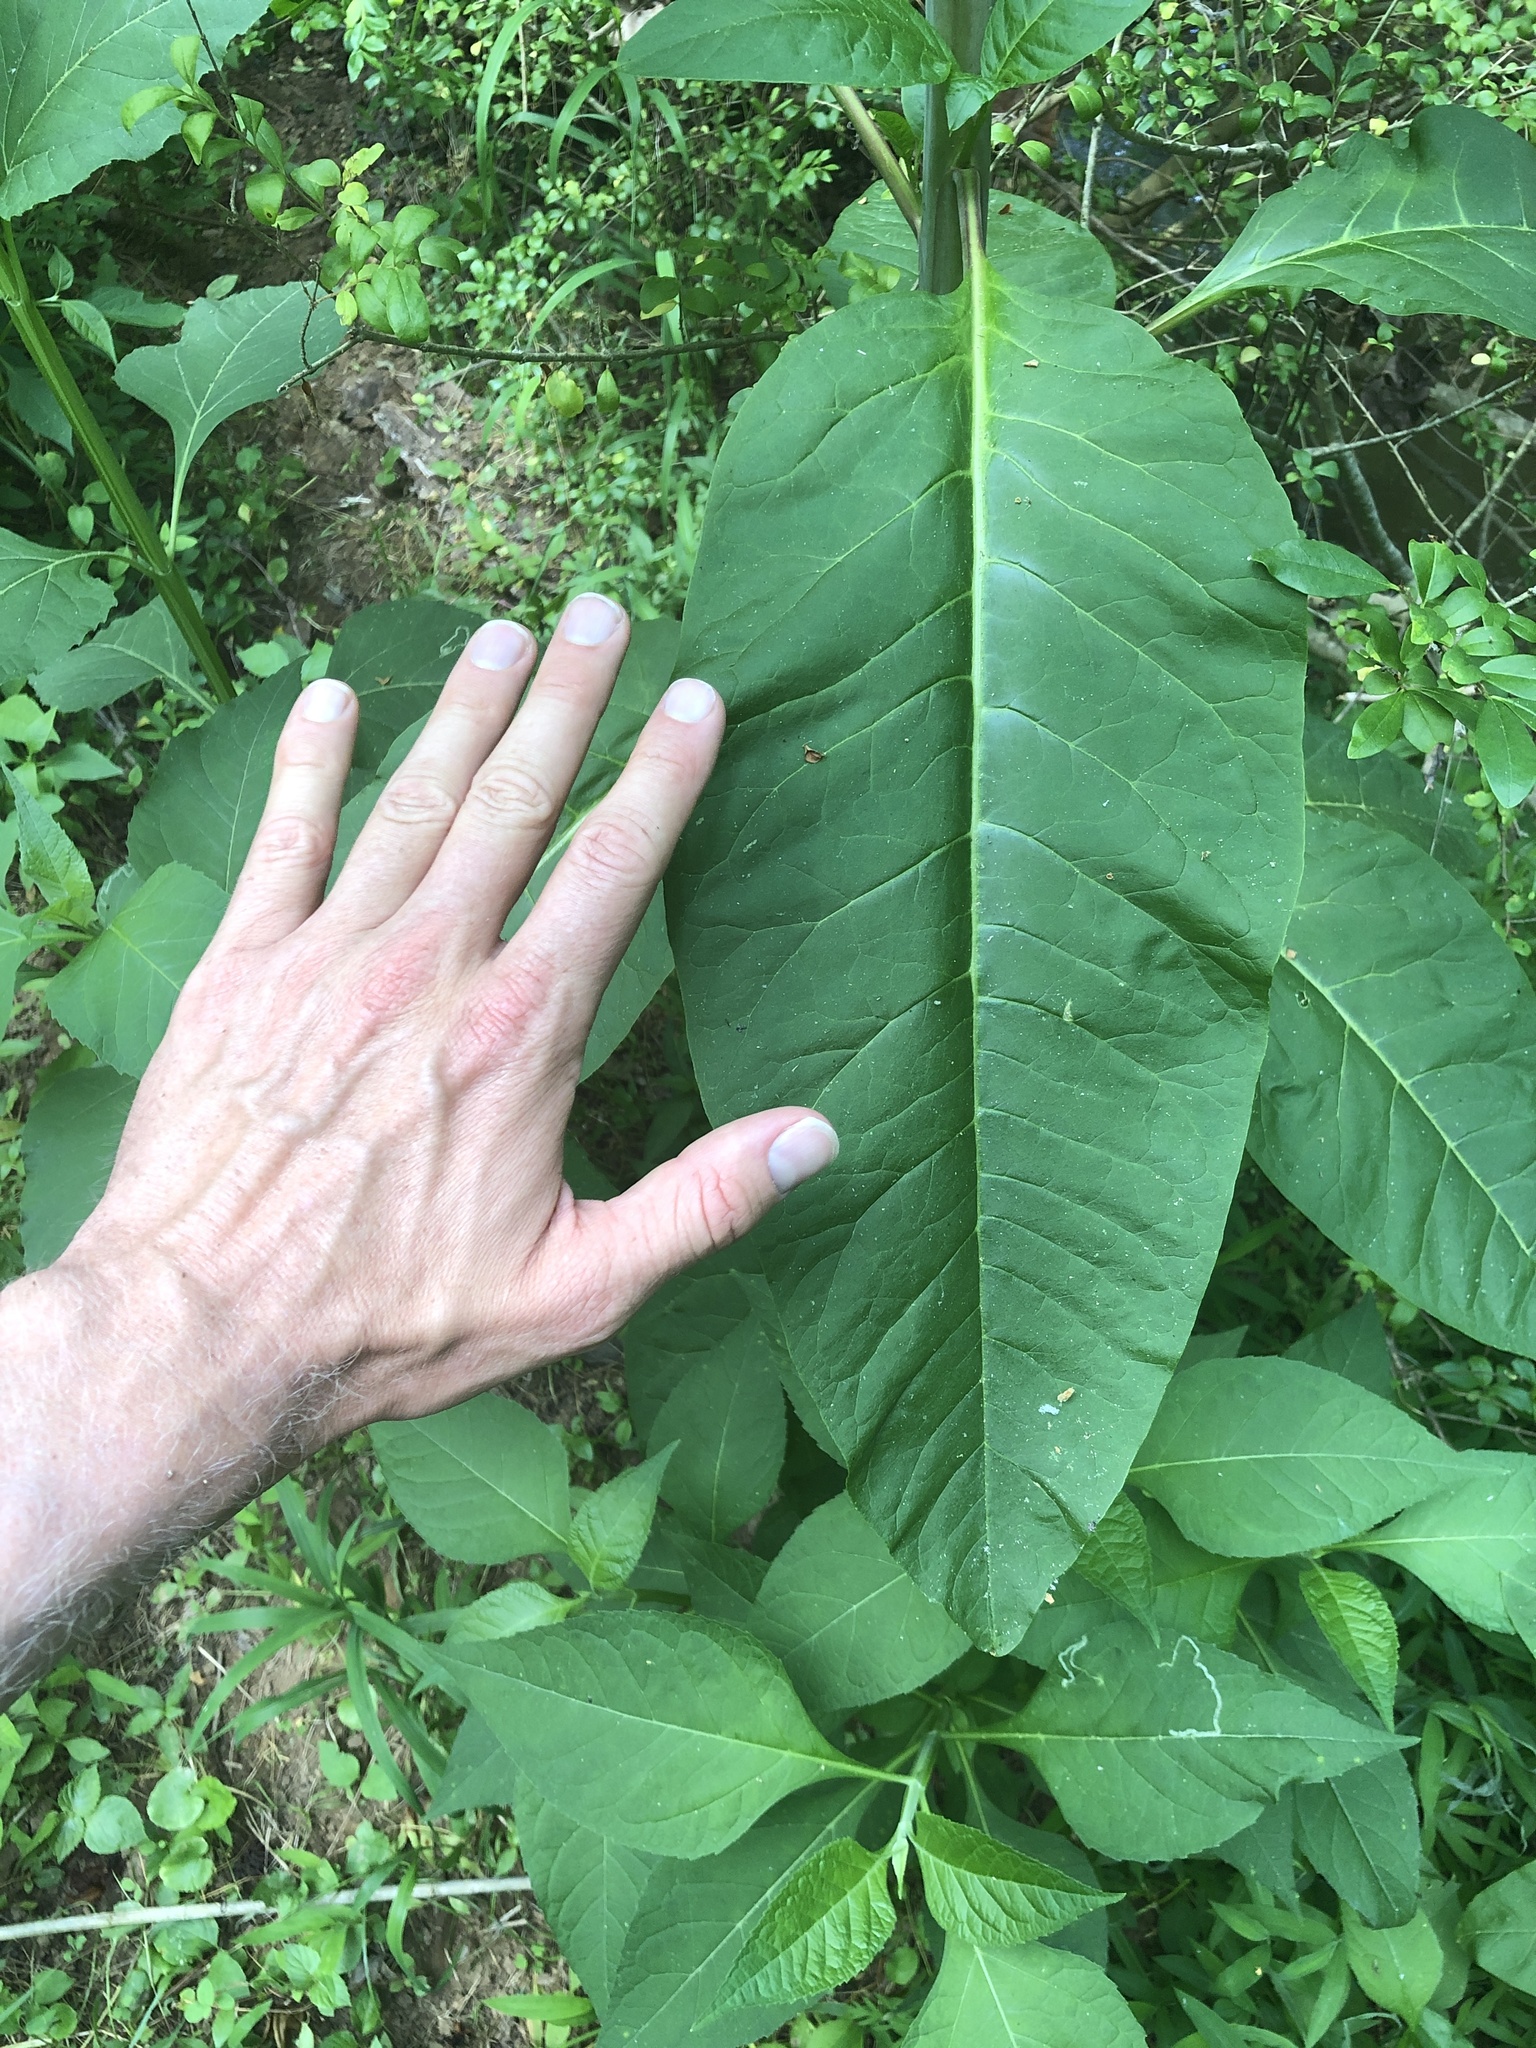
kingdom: Plantae
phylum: Tracheophyta
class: Magnoliopsida
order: Caryophyllales
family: Phytolaccaceae
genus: Phytolacca
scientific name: Phytolacca americana
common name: American pokeweed
